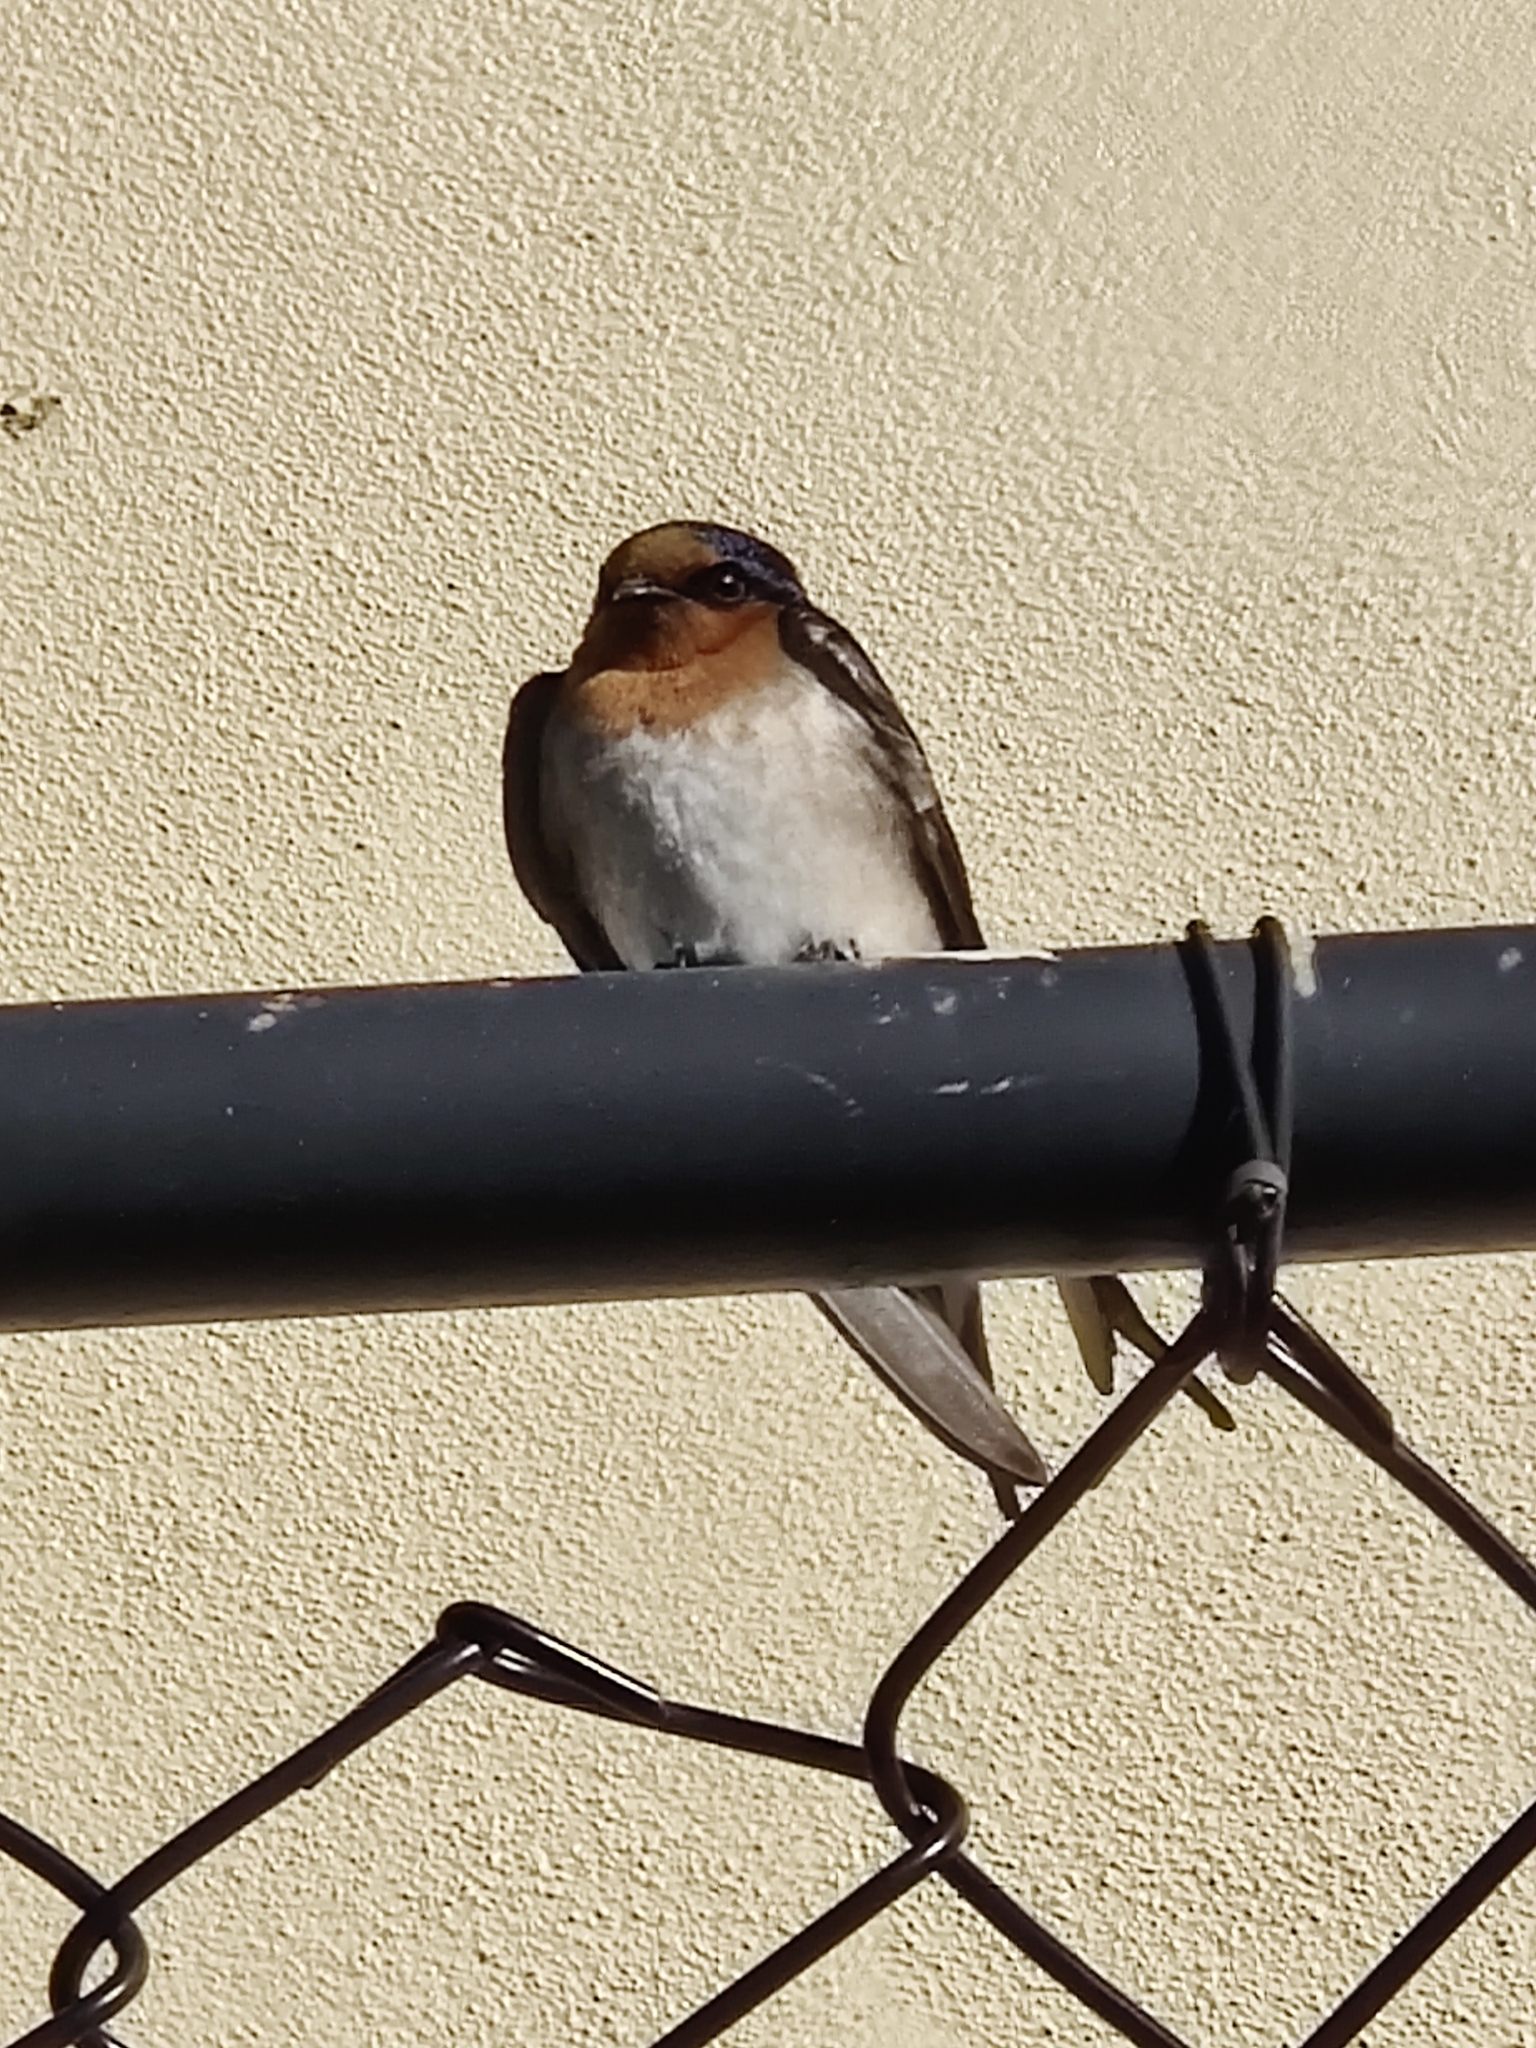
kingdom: Animalia
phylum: Chordata
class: Aves
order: Passeriformes
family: Hirundinidae
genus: Hirundo
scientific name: Hirundo neoxena
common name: Welcome swallow
